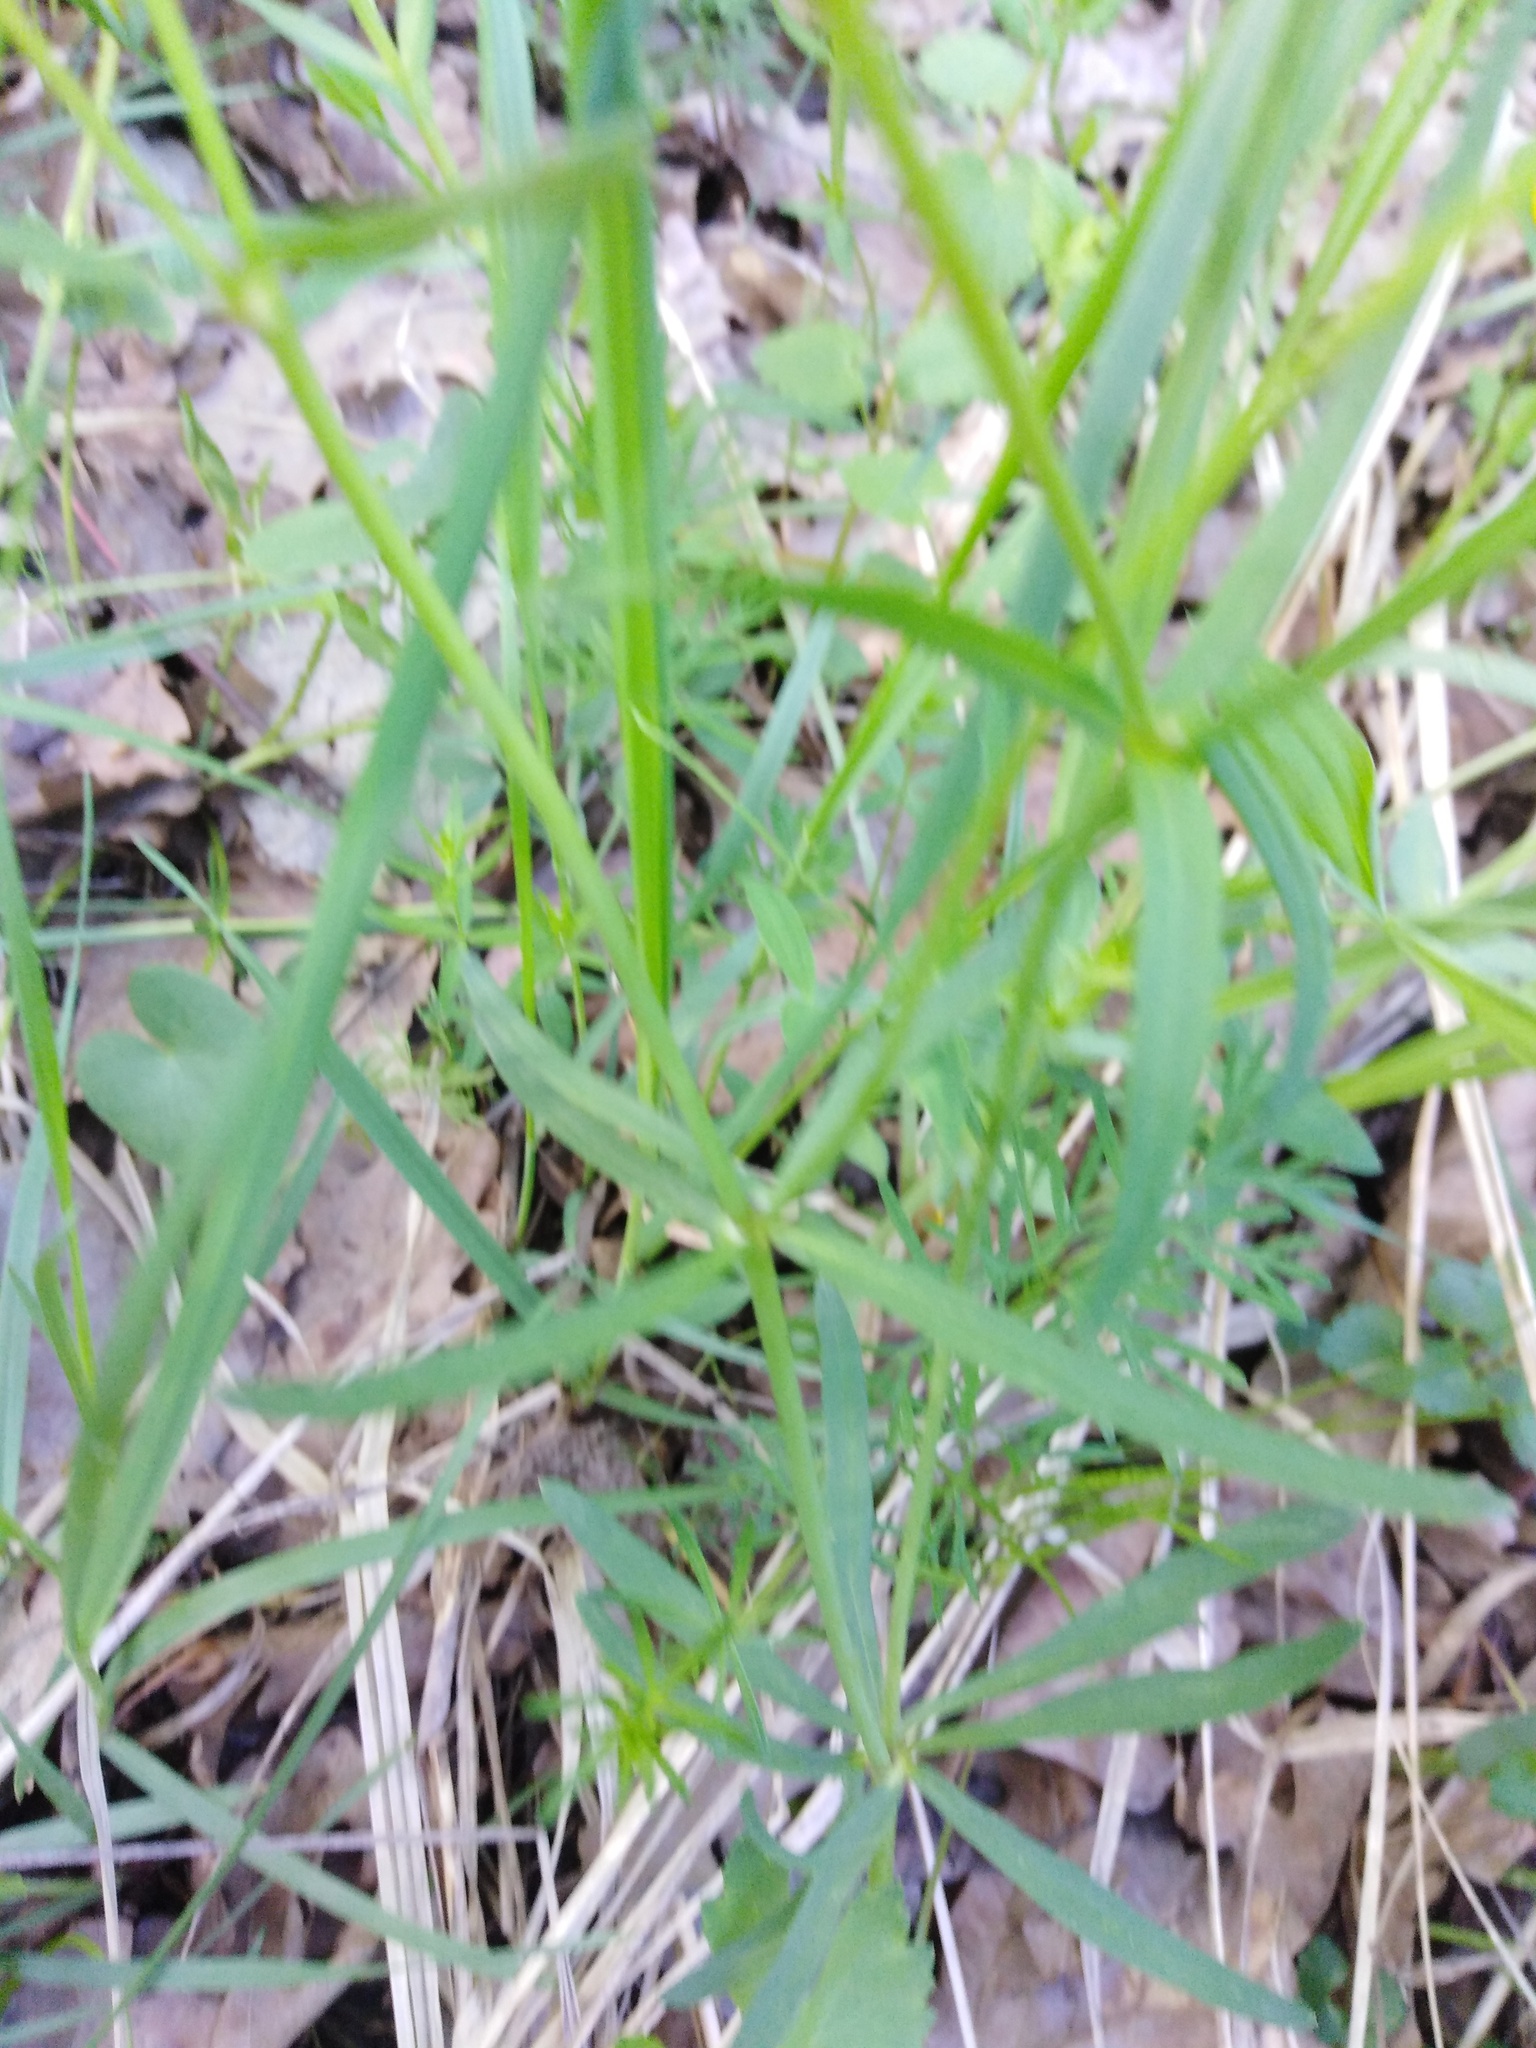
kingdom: Plantae
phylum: Tracheophyta
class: Magnoliopsida
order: Ranunculales
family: Ranunculaceae
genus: Ranunculus
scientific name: Ranunculus auricomus
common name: Goldilocks buttercup
